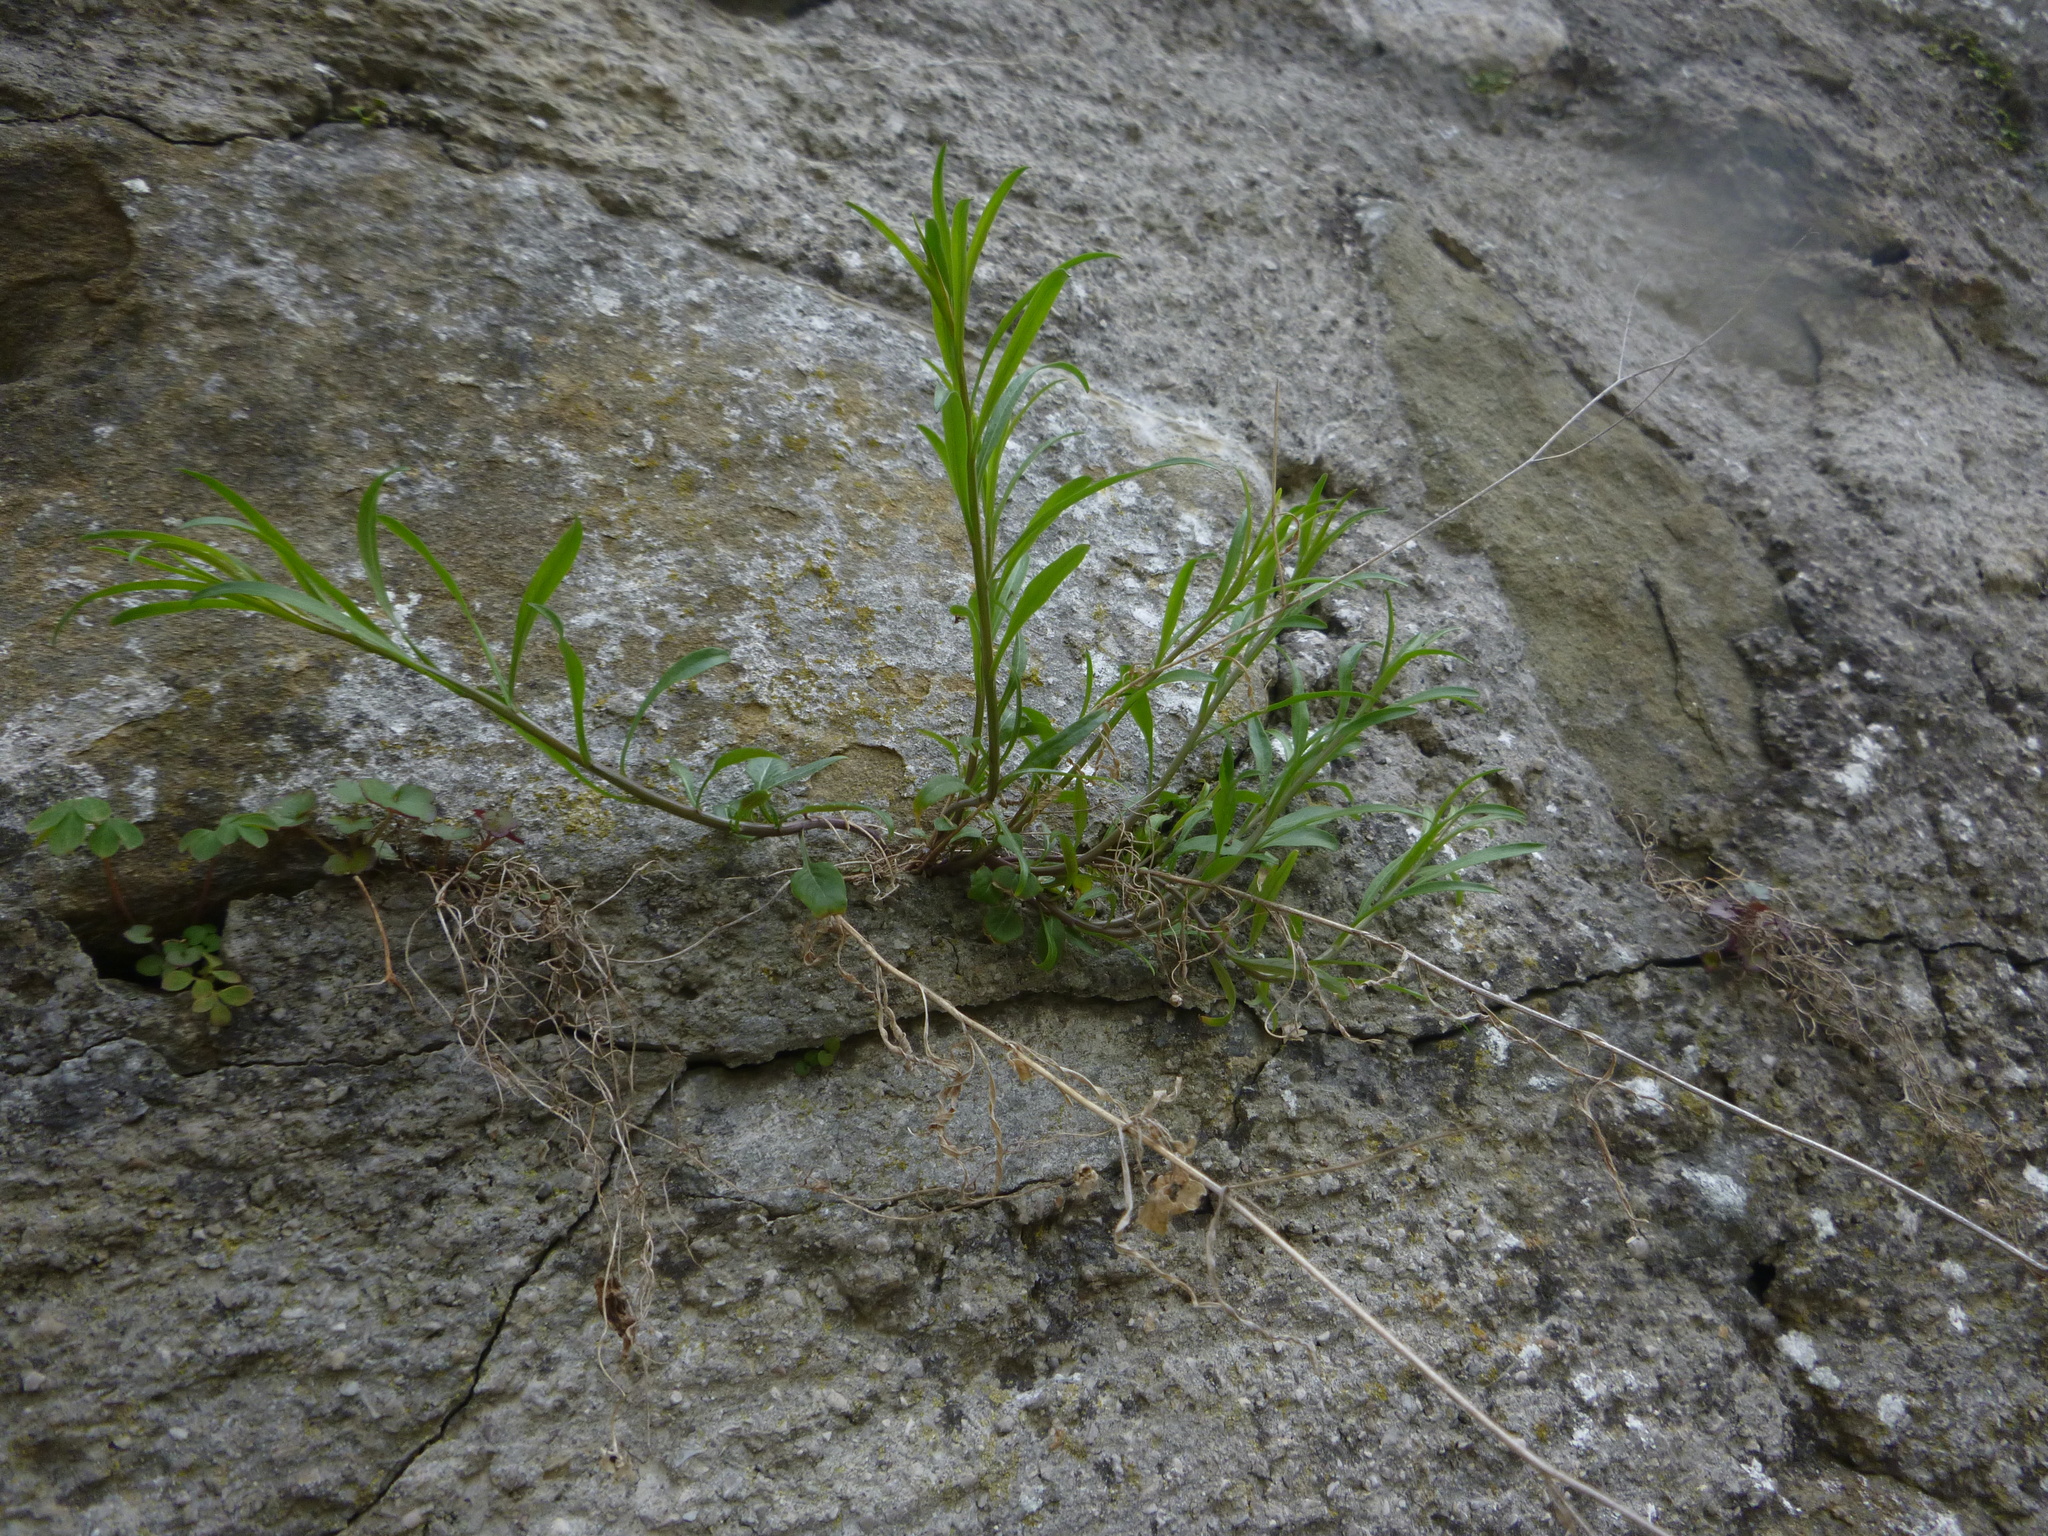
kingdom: Plantae
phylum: Tracheophyta
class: Magnoliopsida
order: Asterales
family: Campanulaceae
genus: Campanula
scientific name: Campanula
